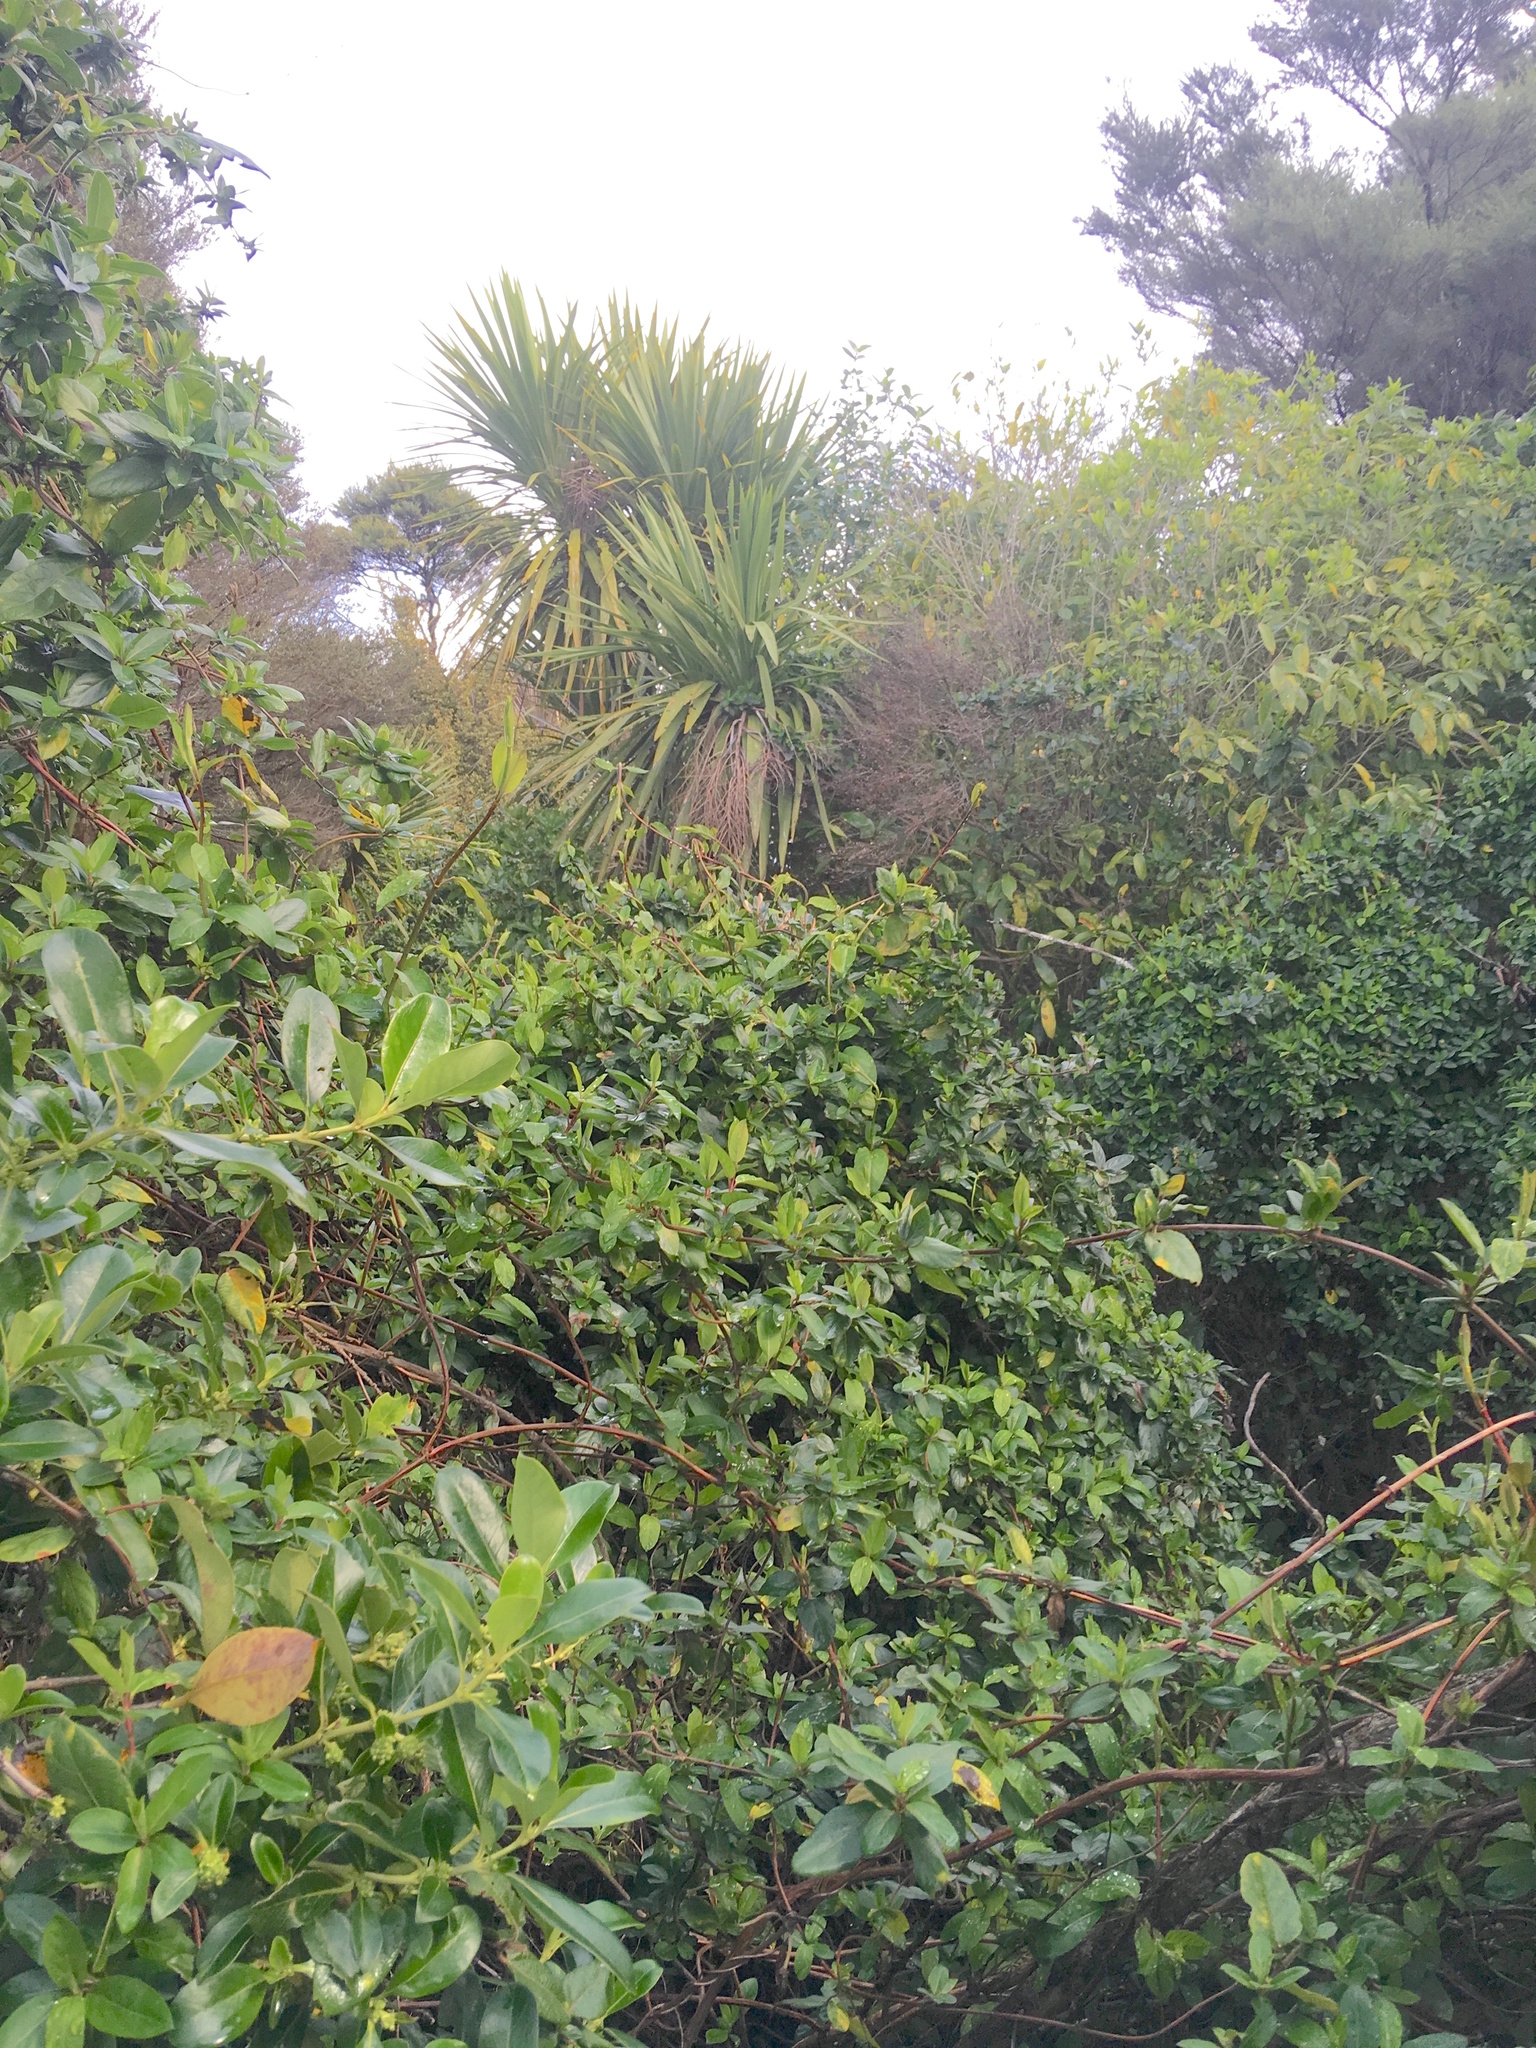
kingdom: Plantae
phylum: Tracheophyta
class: Magnoliopsida
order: Dipsacales
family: Caprifoliaceae
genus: Lonicera
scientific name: Lonicera japonica
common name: Japanese honeysuckle
